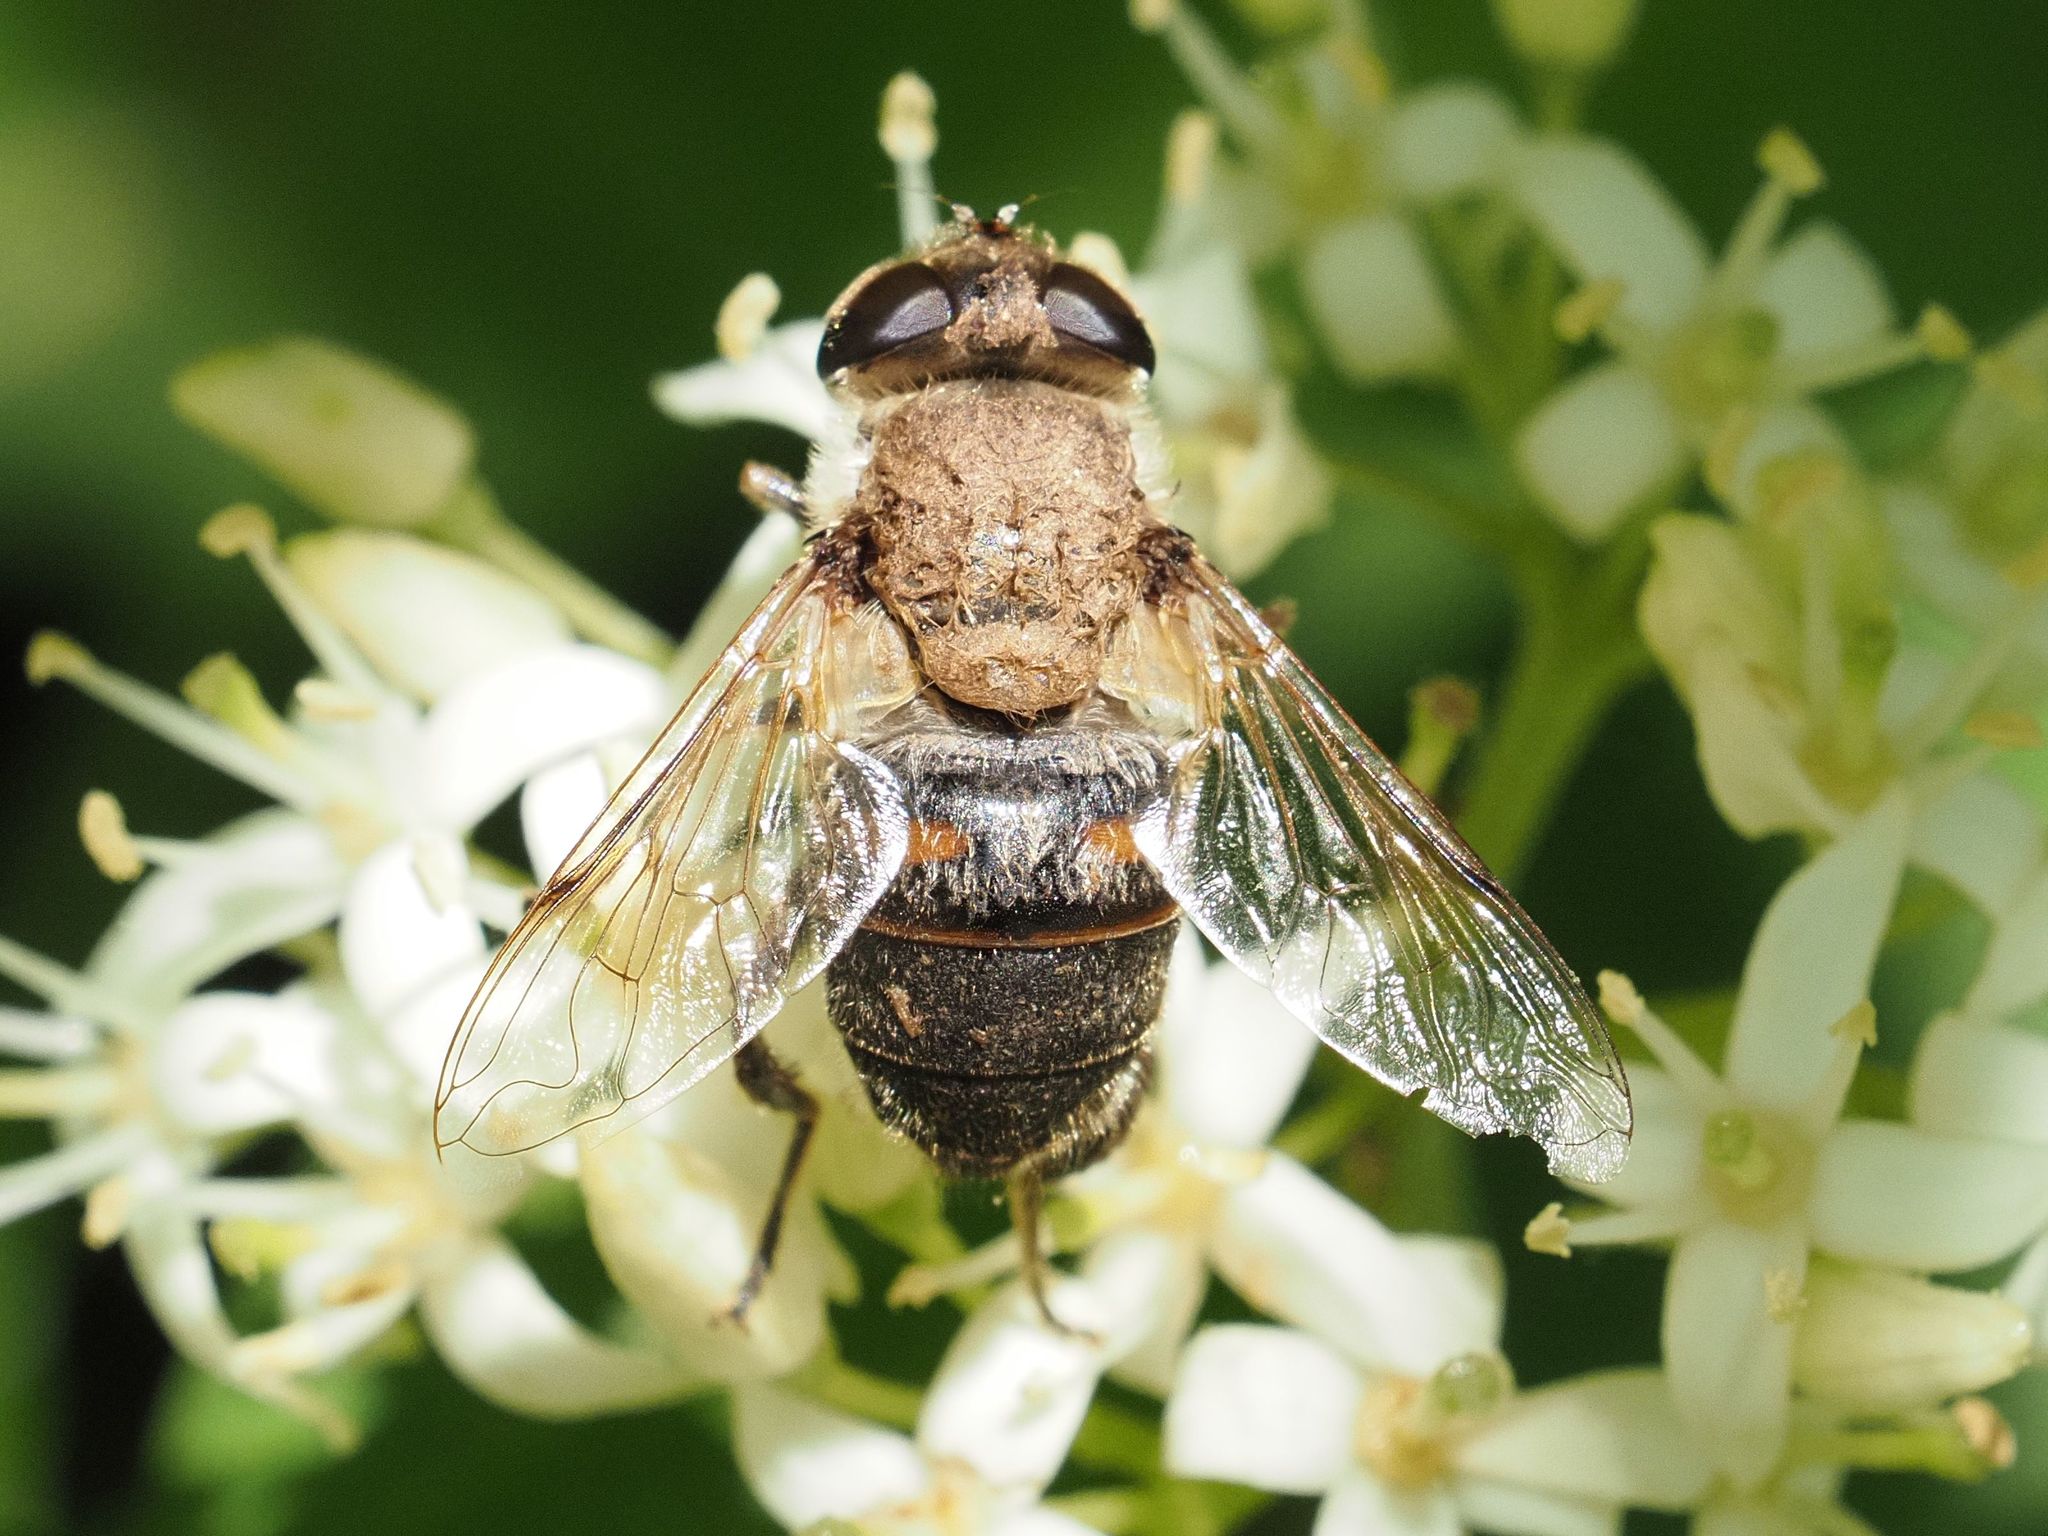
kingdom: Animalia
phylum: Arthropoda
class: Insecta
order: Diptera
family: Syrphidae
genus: Eristalis
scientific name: Eristalis tenax
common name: Drone fly
